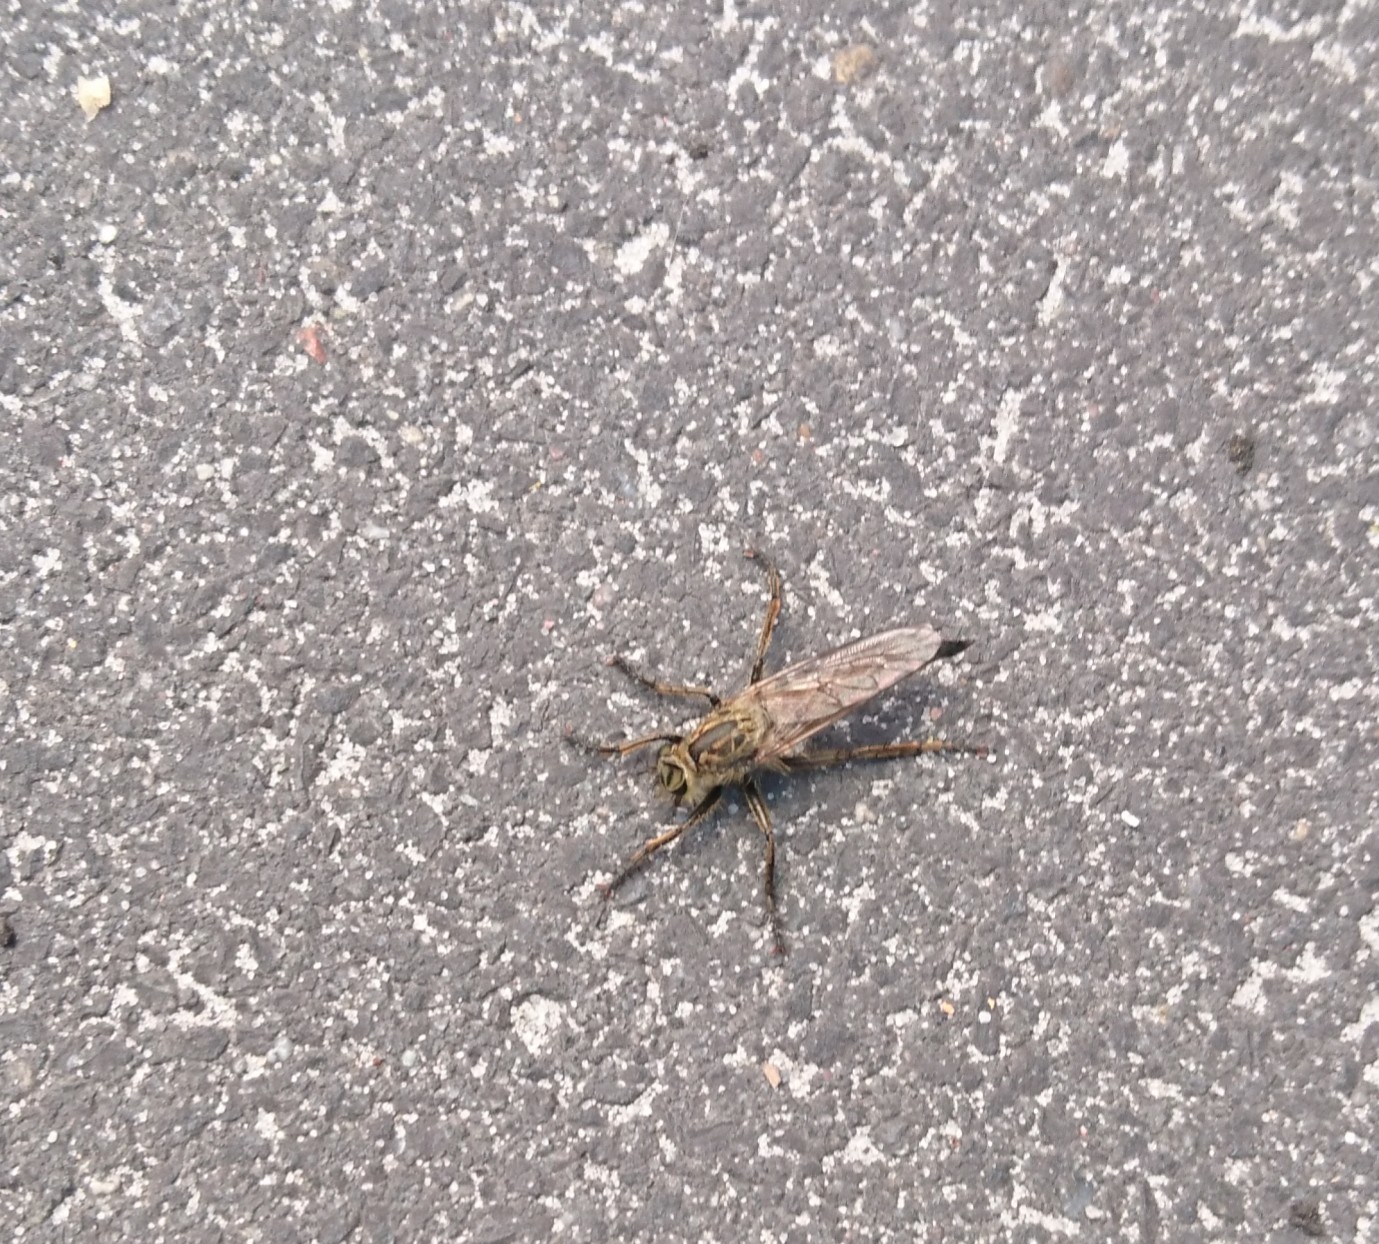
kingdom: Animalia
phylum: Arthropoda
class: Insecta
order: Diptera
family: Asilidae
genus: Eutolmus
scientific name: Eutolmus rufibarbis
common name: Golden-tabbed robberfly
